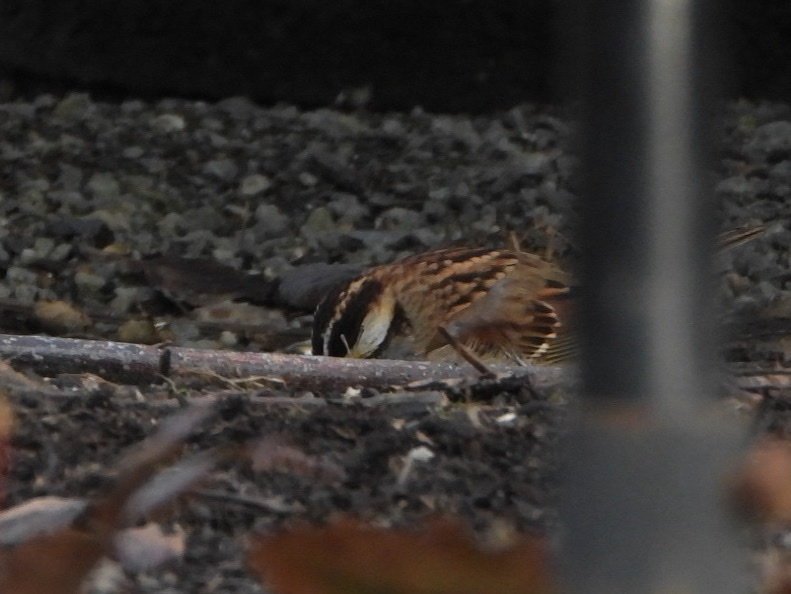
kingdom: Animalia
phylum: Chordata
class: Aves
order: Passeriformes
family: Passerellidae
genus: Zonotrichia
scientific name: Zonotrichia albicollis
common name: White-throated sparrow
